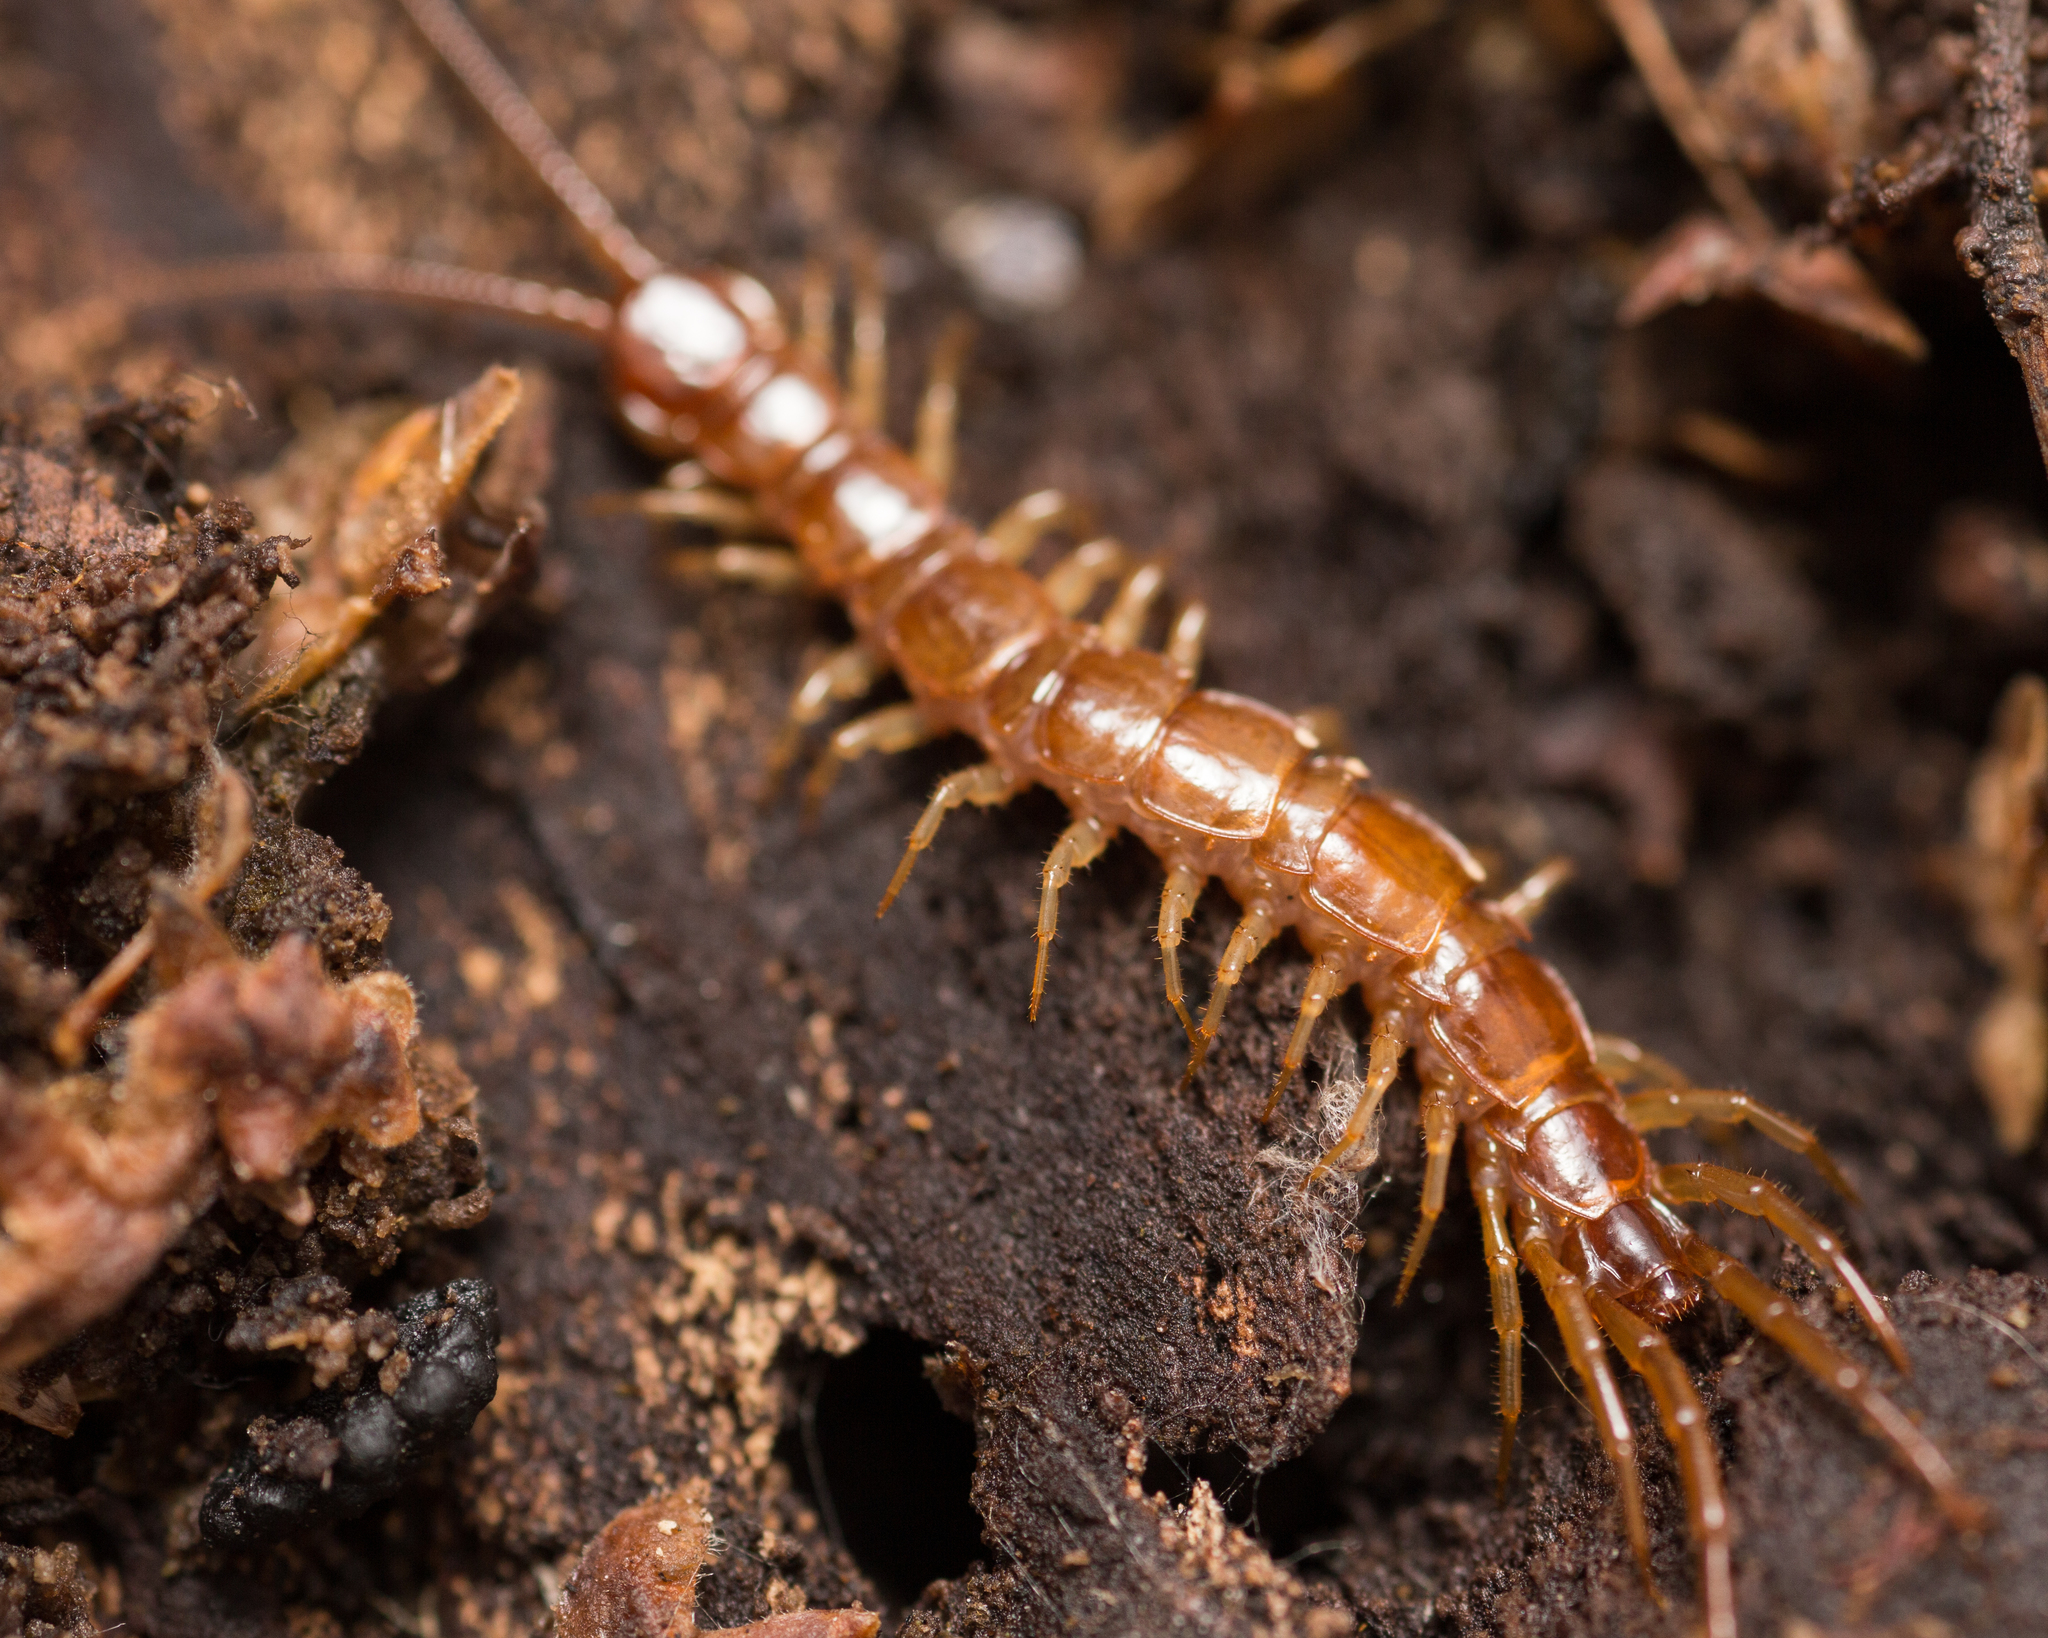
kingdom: Animalia
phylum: Arthropoda
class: Chilopoda
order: Lithobiomorpha
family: Lithobiidae
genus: Lithobius
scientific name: Lithobius forficatus
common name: Centipede
